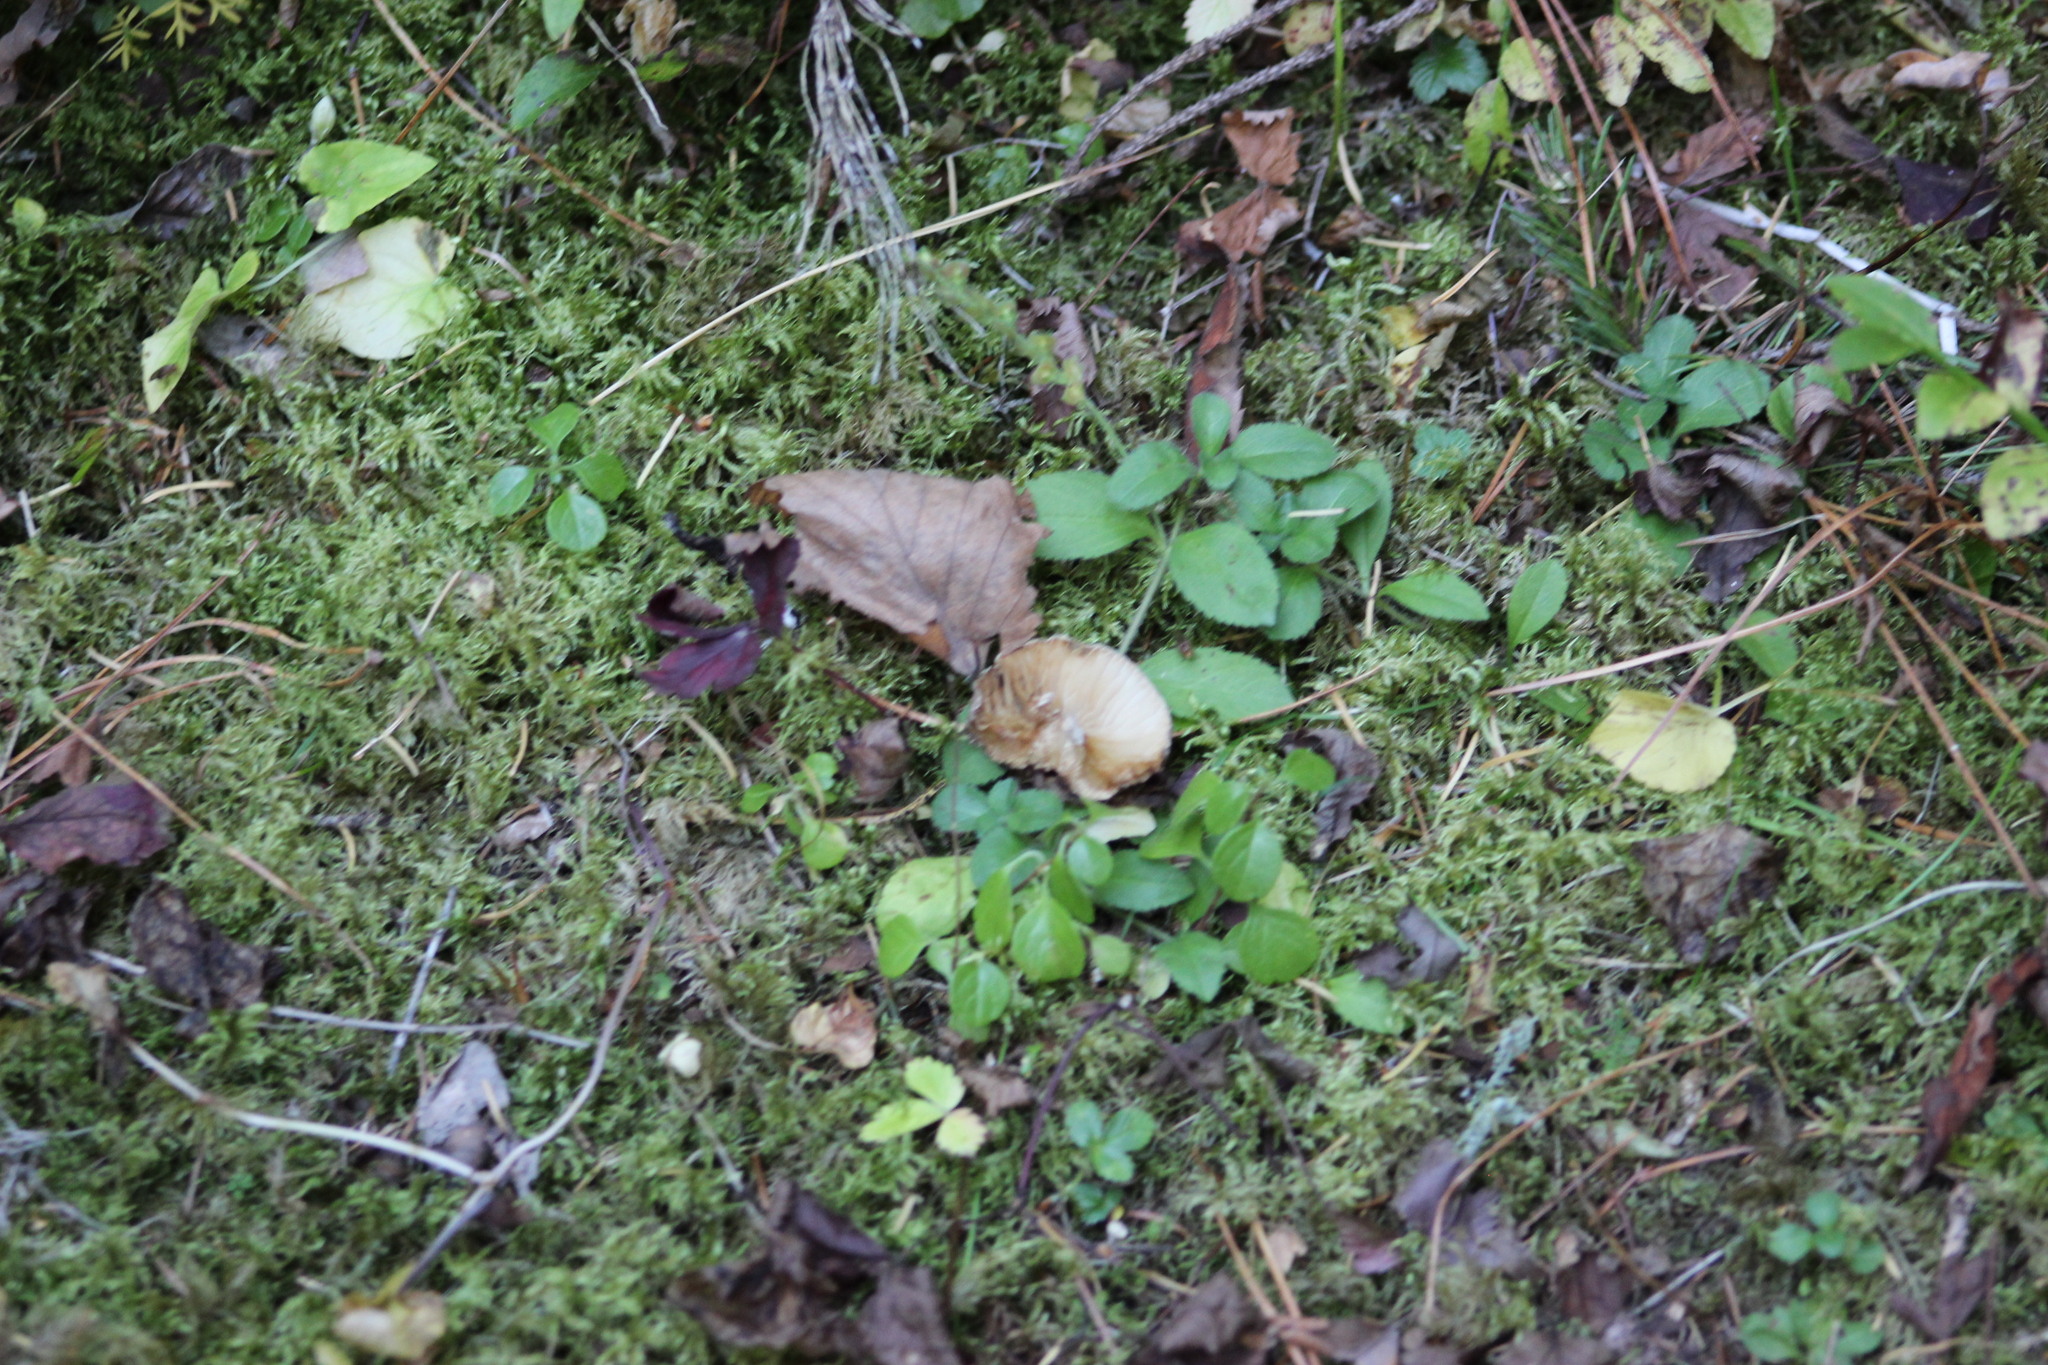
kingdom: Plantae
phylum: Tracheophyta
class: Magnoliopsida
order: Lamiales
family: Plantaginaceae
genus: Veronica
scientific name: Veronica officinalis
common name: Common speedwell
